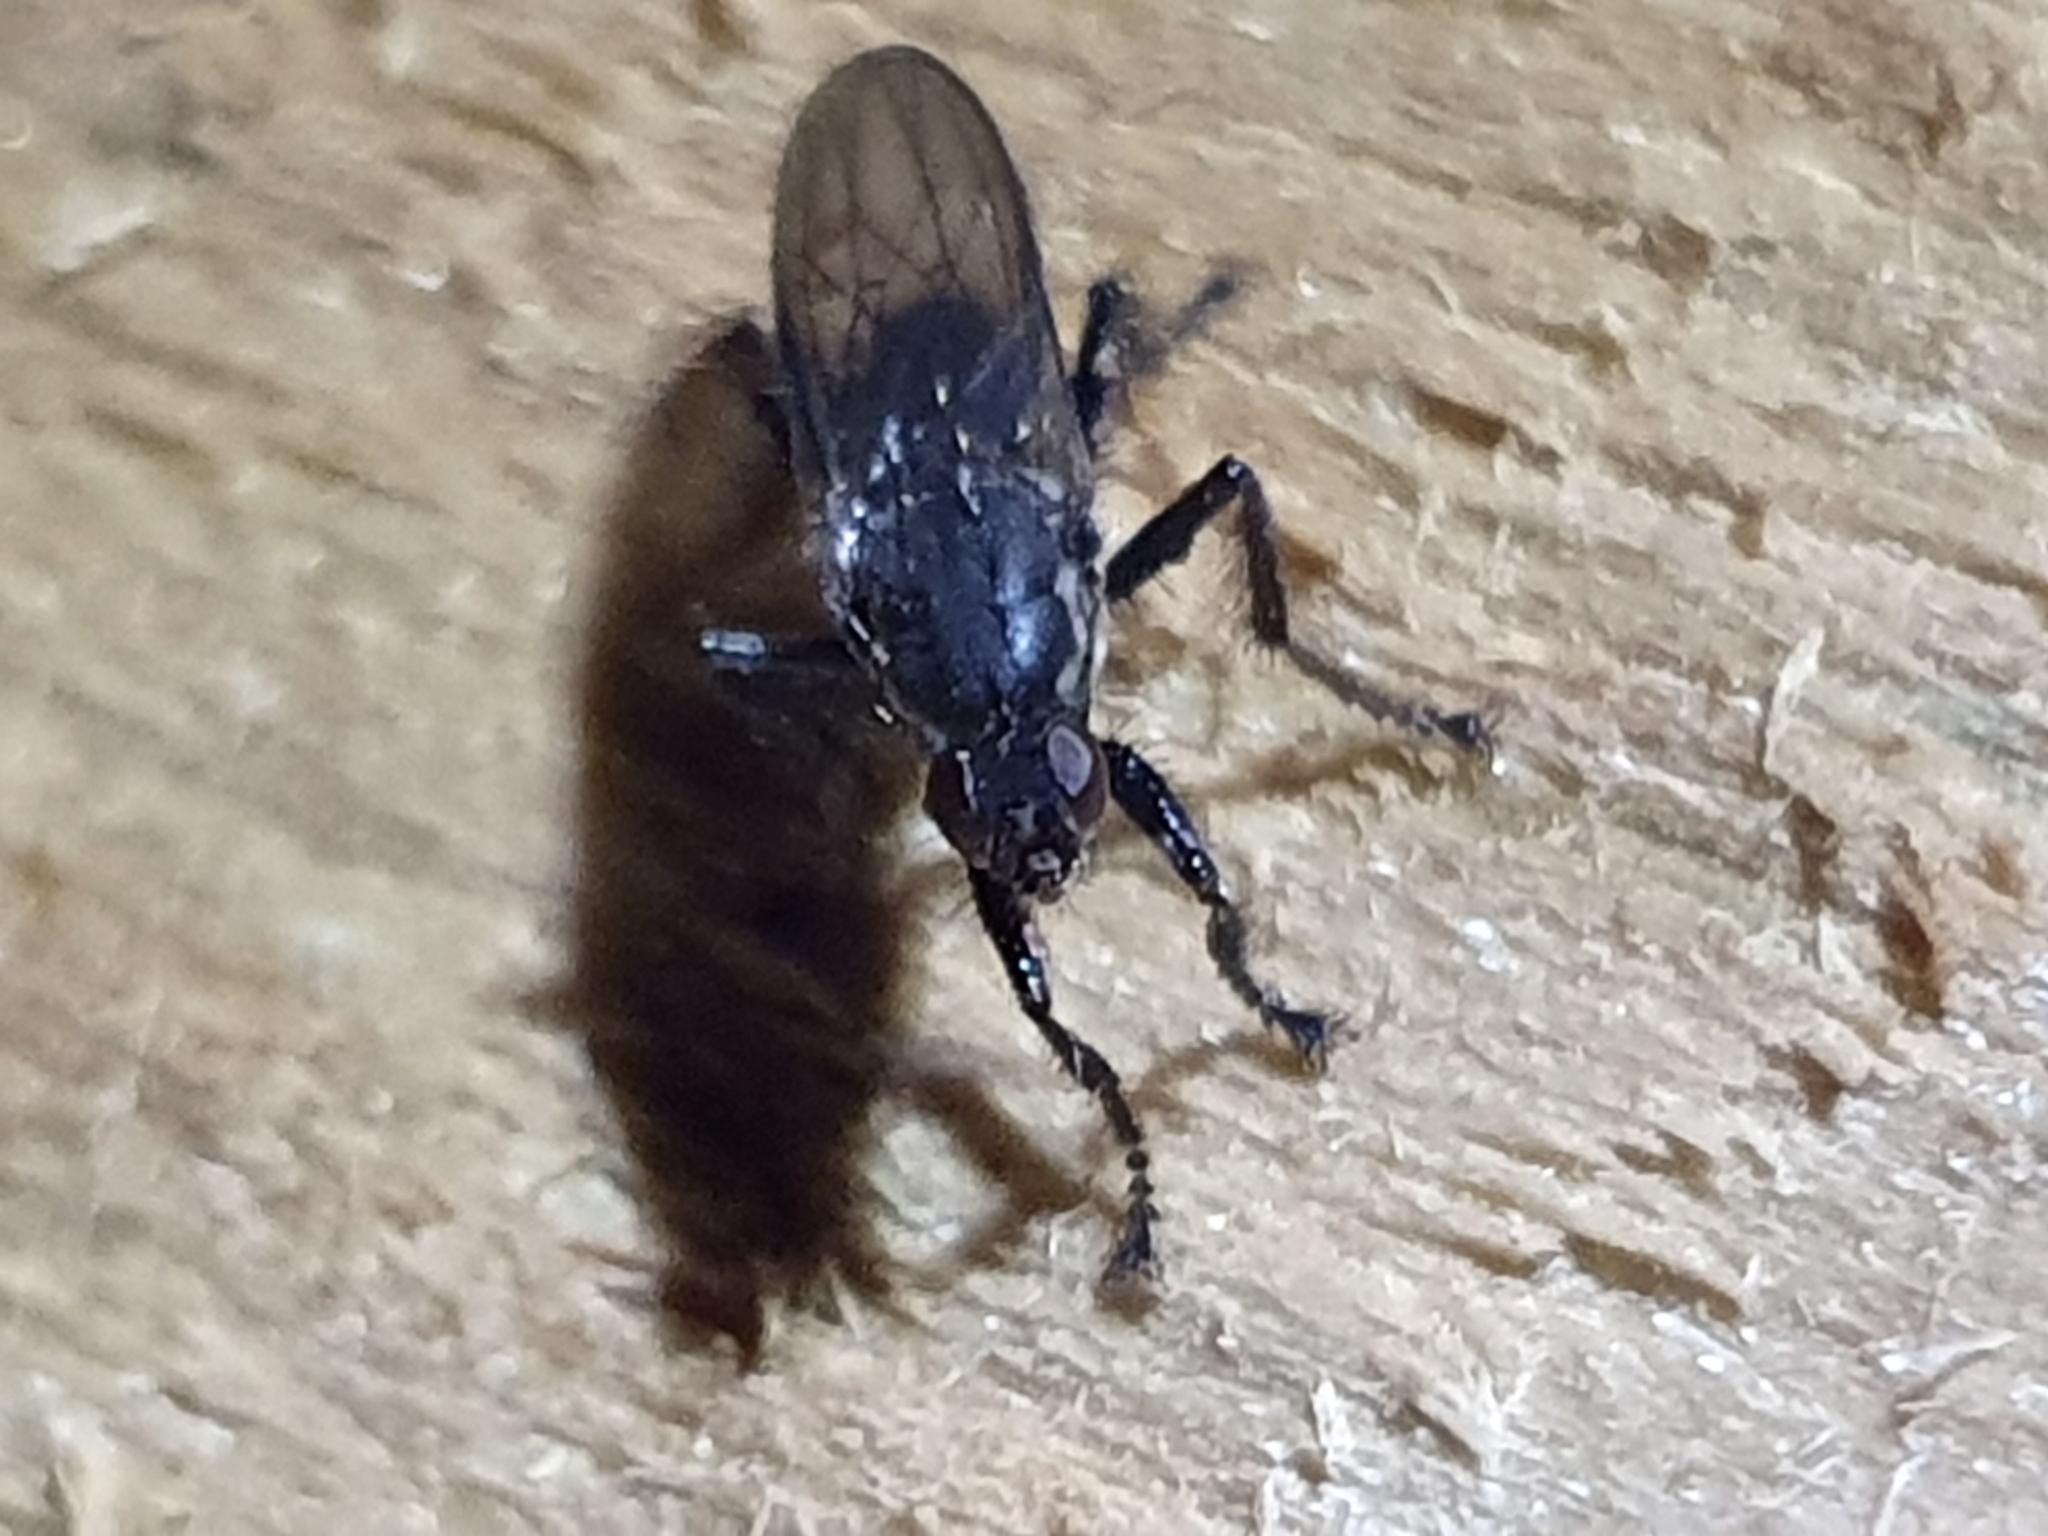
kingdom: Animalia
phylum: Arthropoda
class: Insecta
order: Diptera
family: Coelopidae
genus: Chaetocoelopa
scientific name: Chaetocoelopa littoralis
